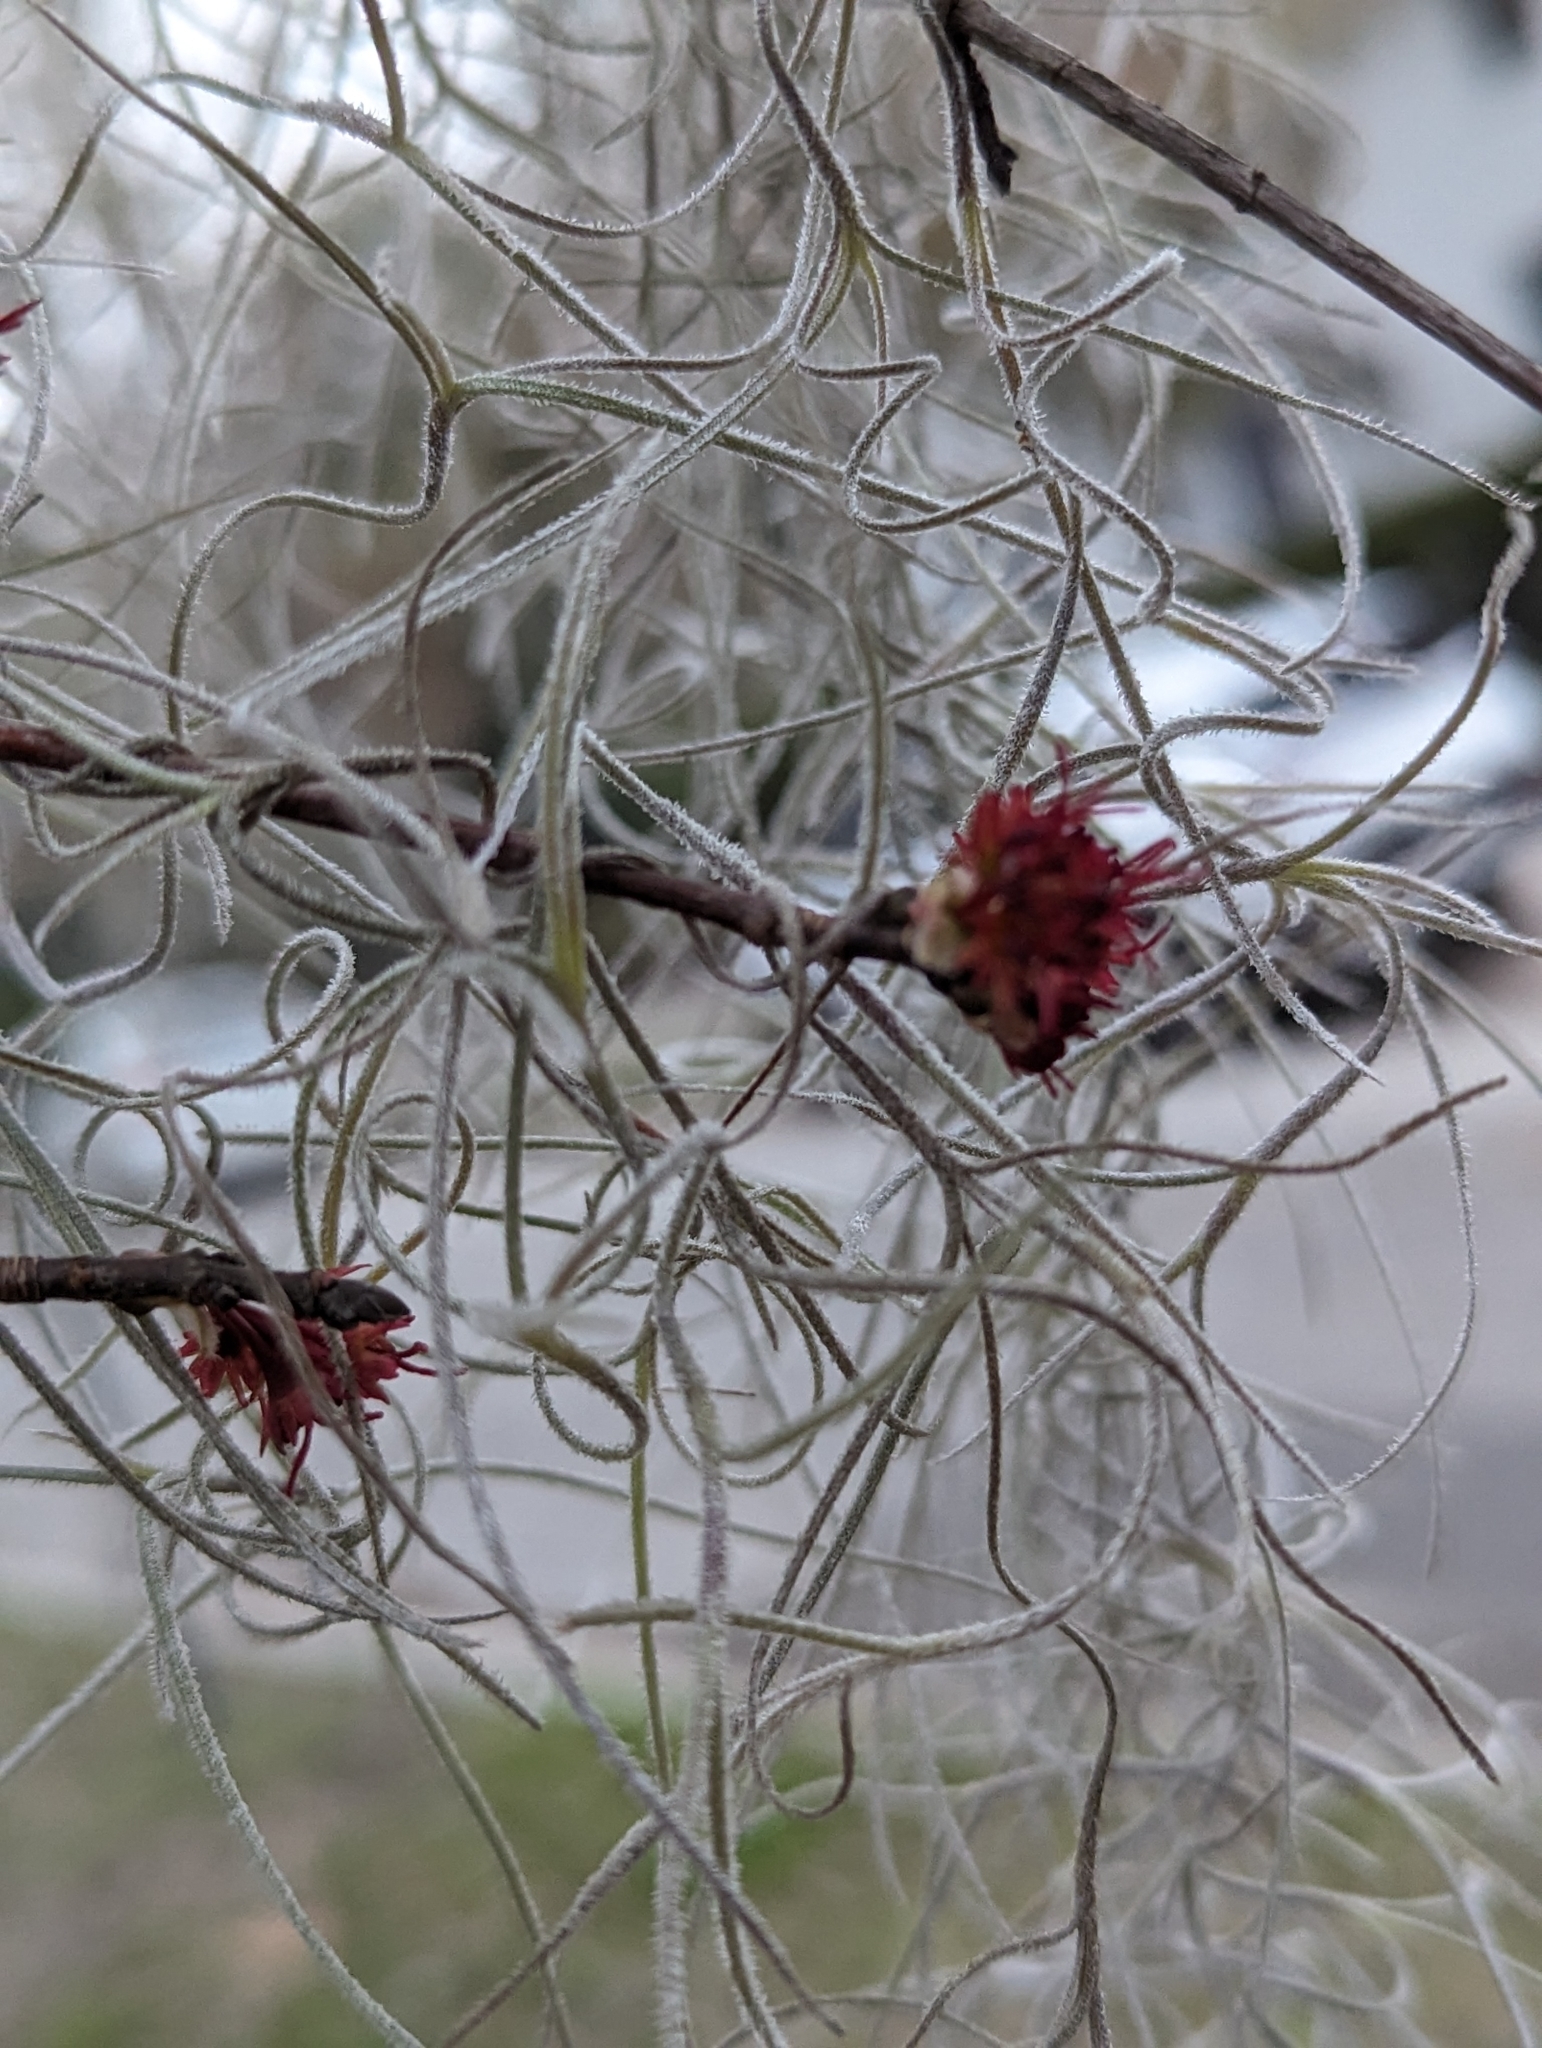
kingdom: Plantae
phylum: Tracheophyta
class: Magnoliopsida
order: Sapindales
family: Sapindaceae
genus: Acer
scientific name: Acer rubrum
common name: Red maple
